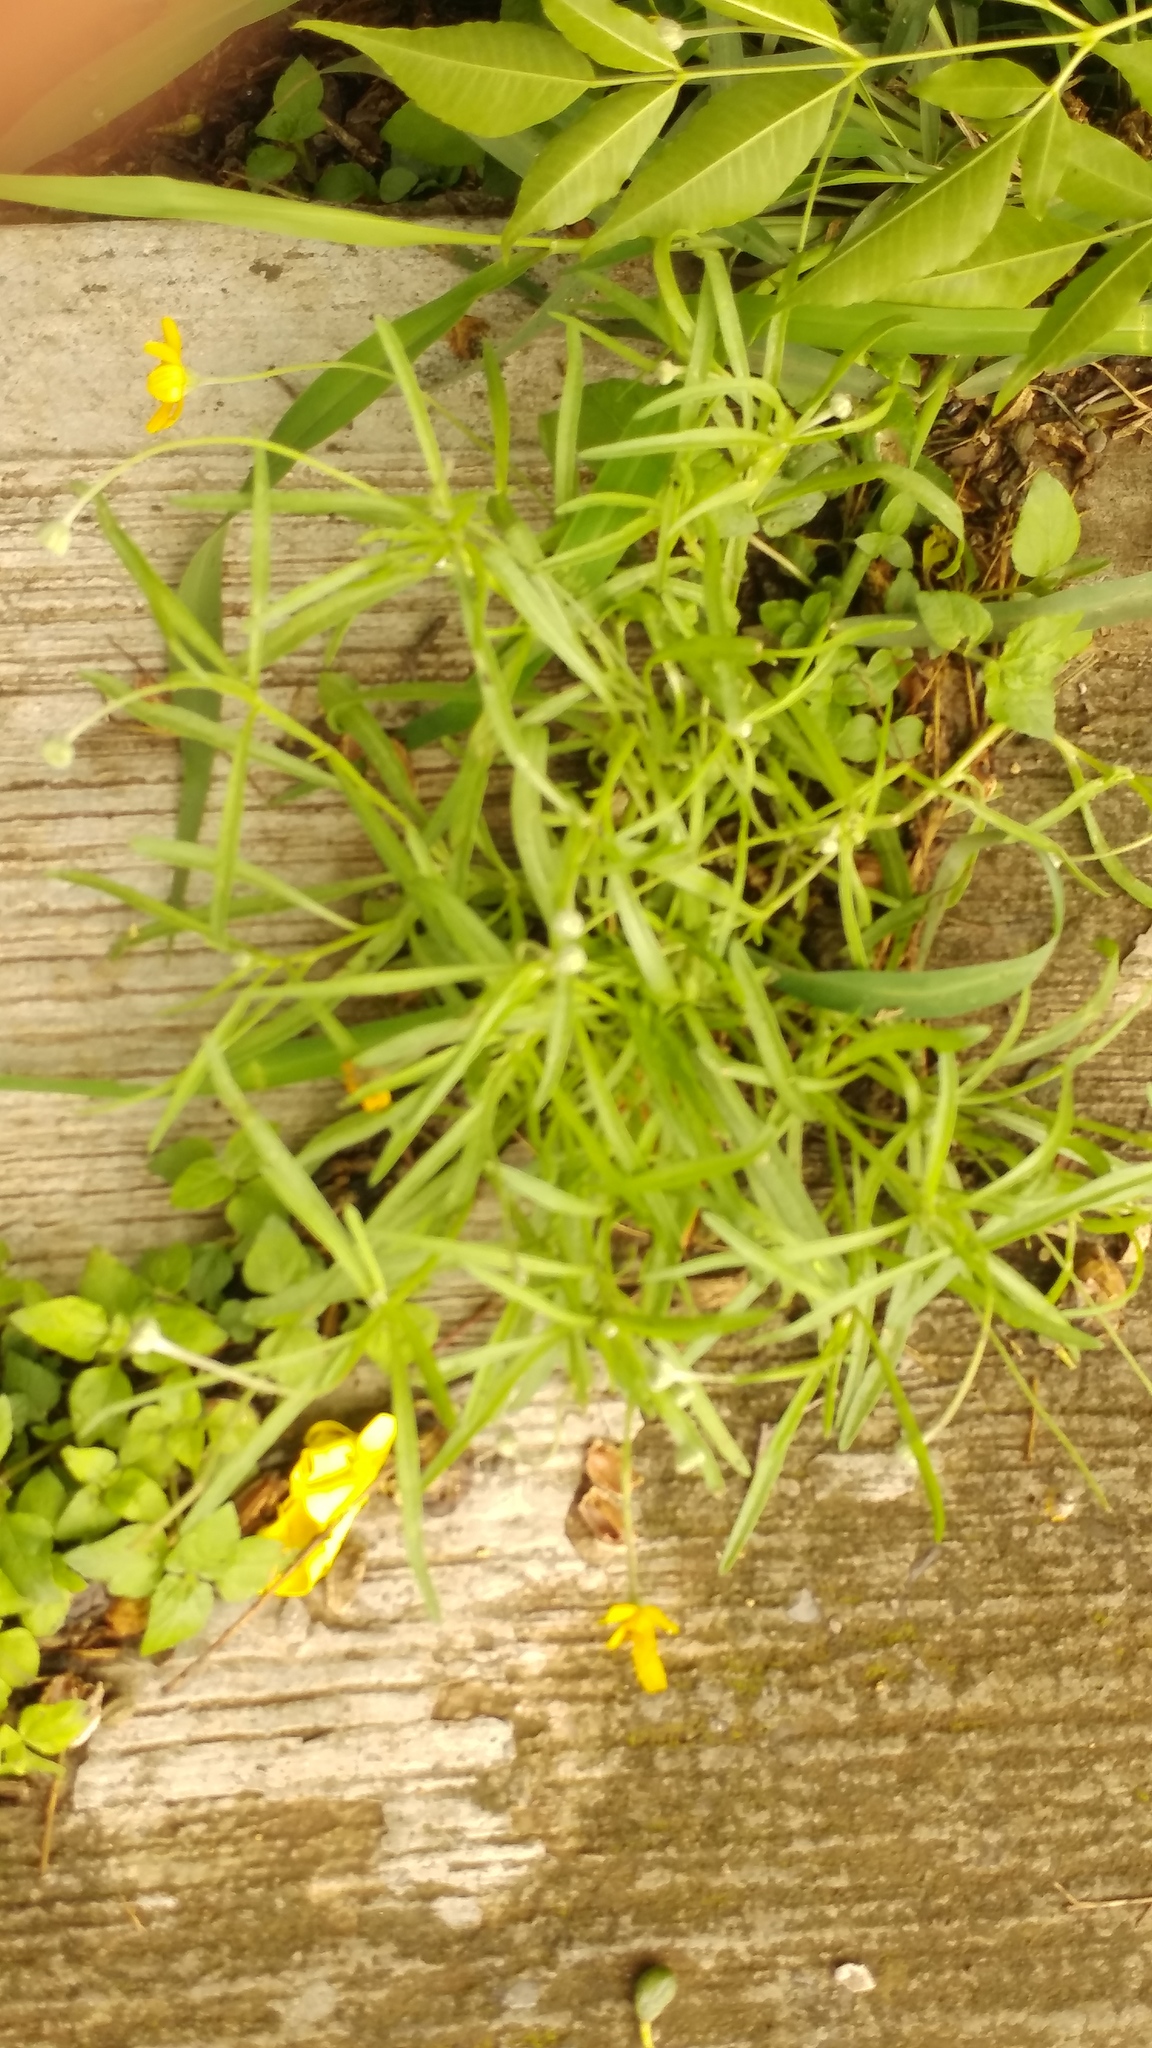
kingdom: Plantae
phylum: Tracheophyta
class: Magnoliopsida
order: Asterales
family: Asteraceae
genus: Tetraneuris
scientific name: Tetraneuris linearifolia
